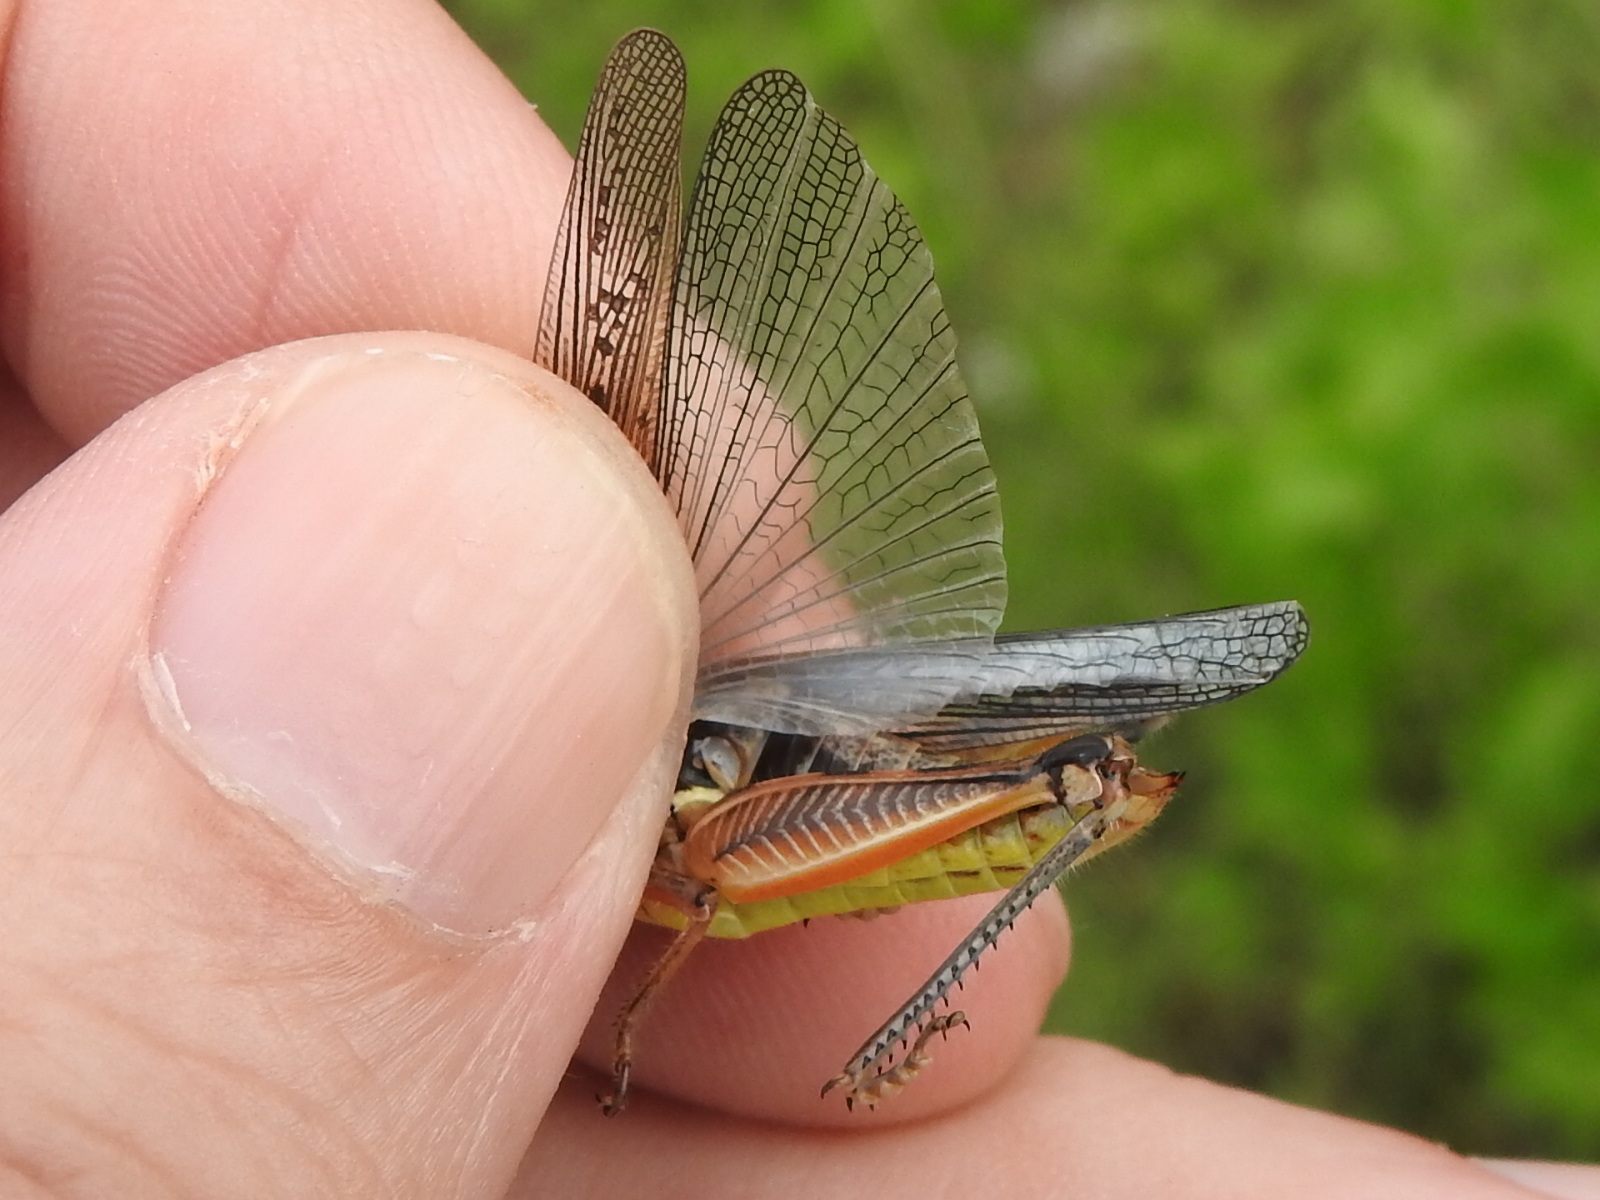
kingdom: Animalia
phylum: Arthropoda
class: Insecta
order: Orthoptera
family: Acrididae
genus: Melanoplus
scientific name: Melanoplus femurrubrum
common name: Red-legged grasshopper
